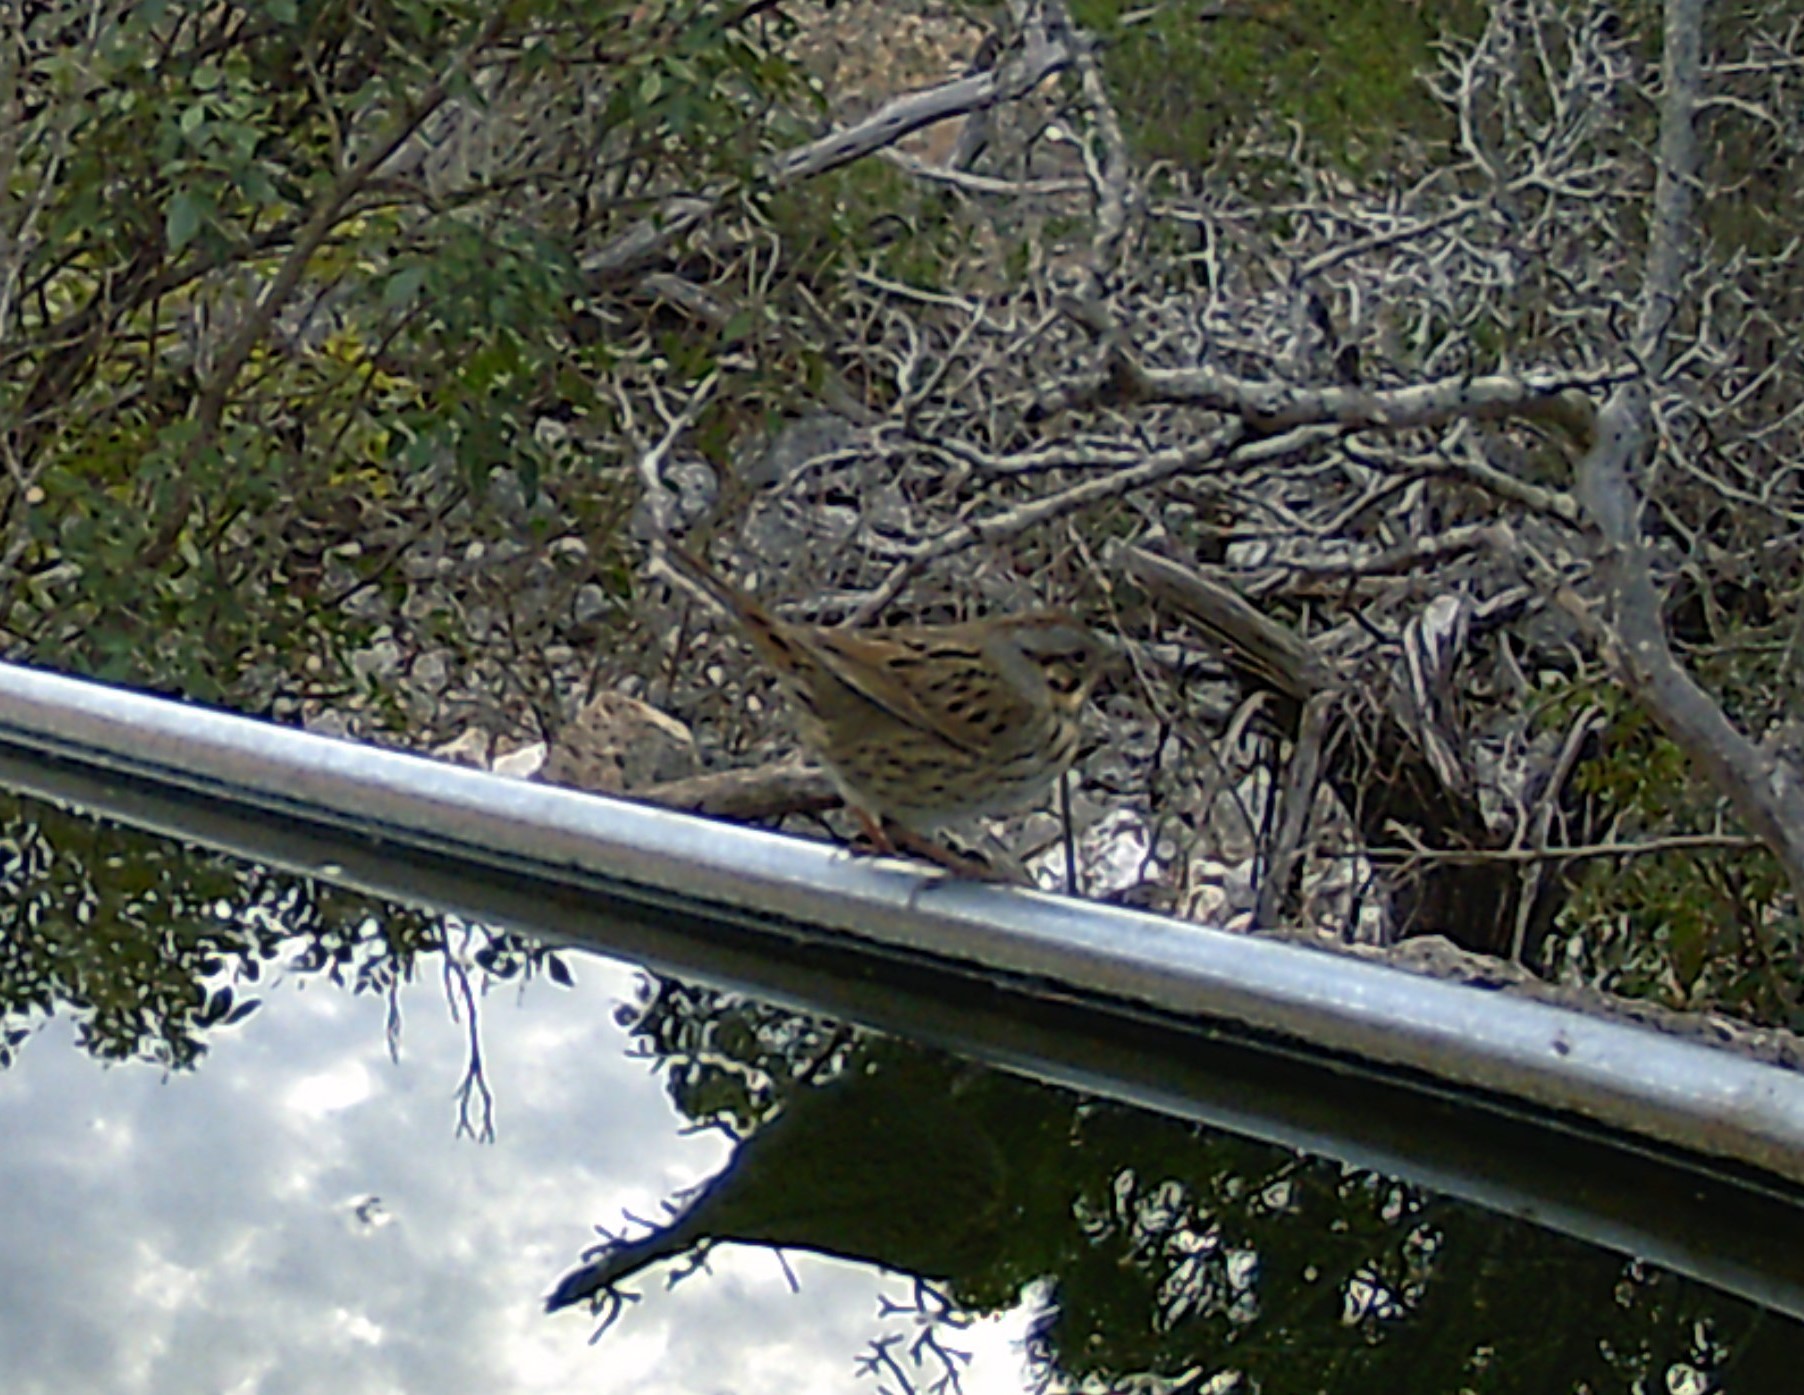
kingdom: Animalia
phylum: Chordata
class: Aves
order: Passeriformes
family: Passerellidae
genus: Melospiza
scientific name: Melospiza lincolnii
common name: Lincoln's sparrow
